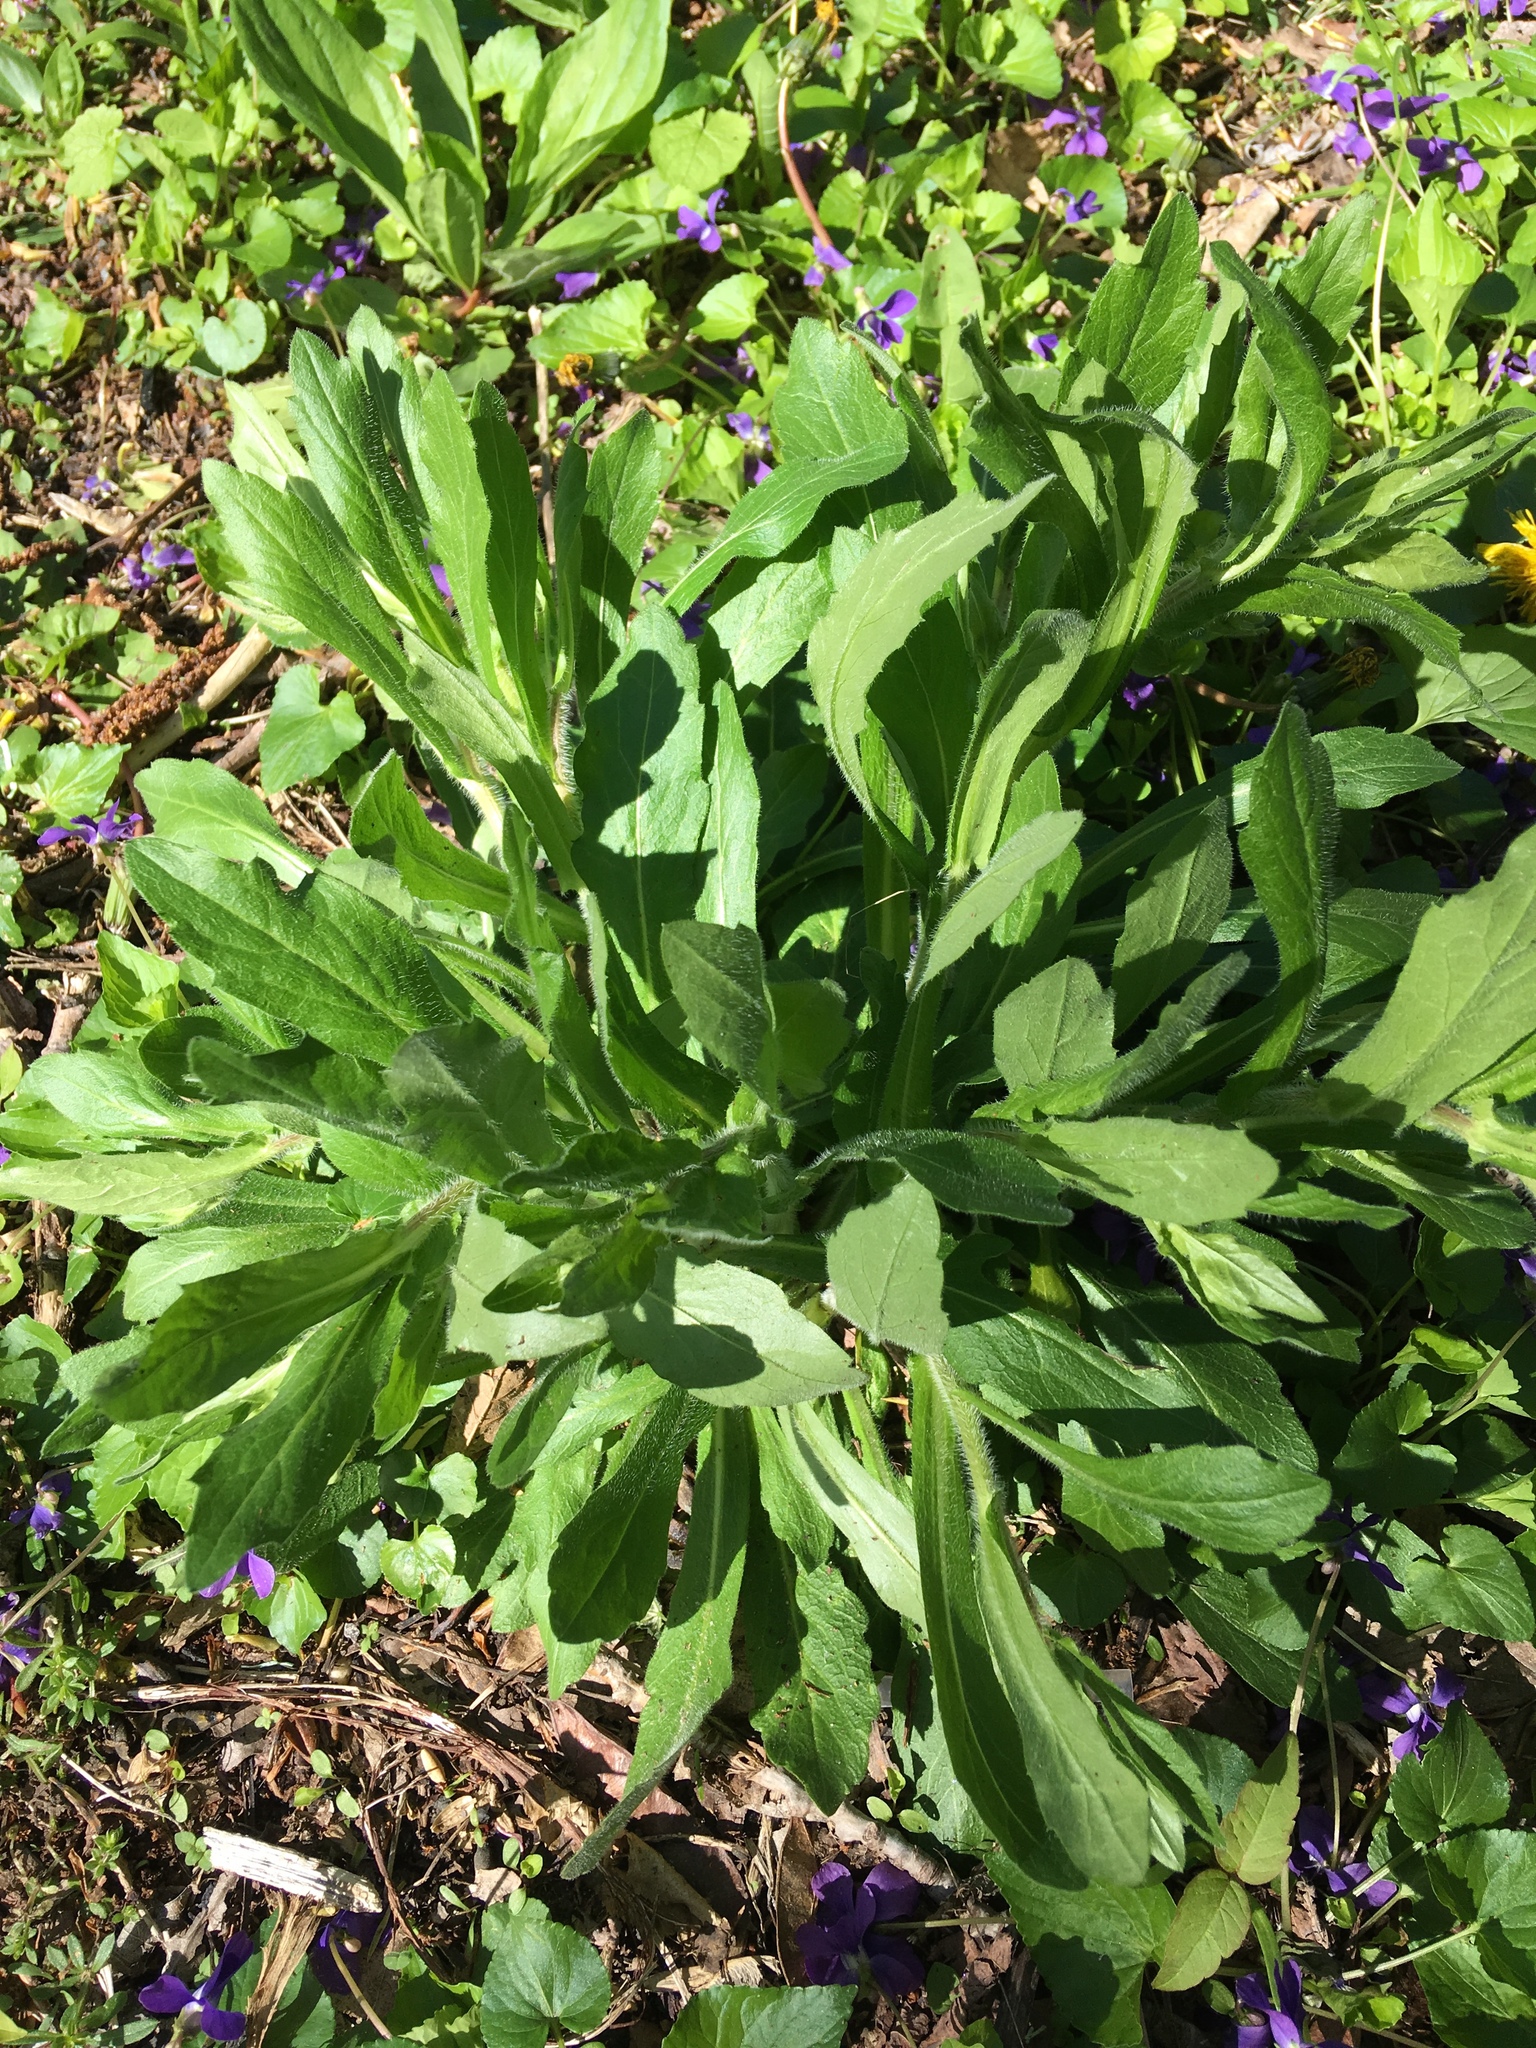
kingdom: Plantae
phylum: Tracheophyta
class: Magnoliopsida
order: Asterales
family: Asteraceae
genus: Erigeron
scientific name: Erigeron philadelphicus
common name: Robin's-plantain
